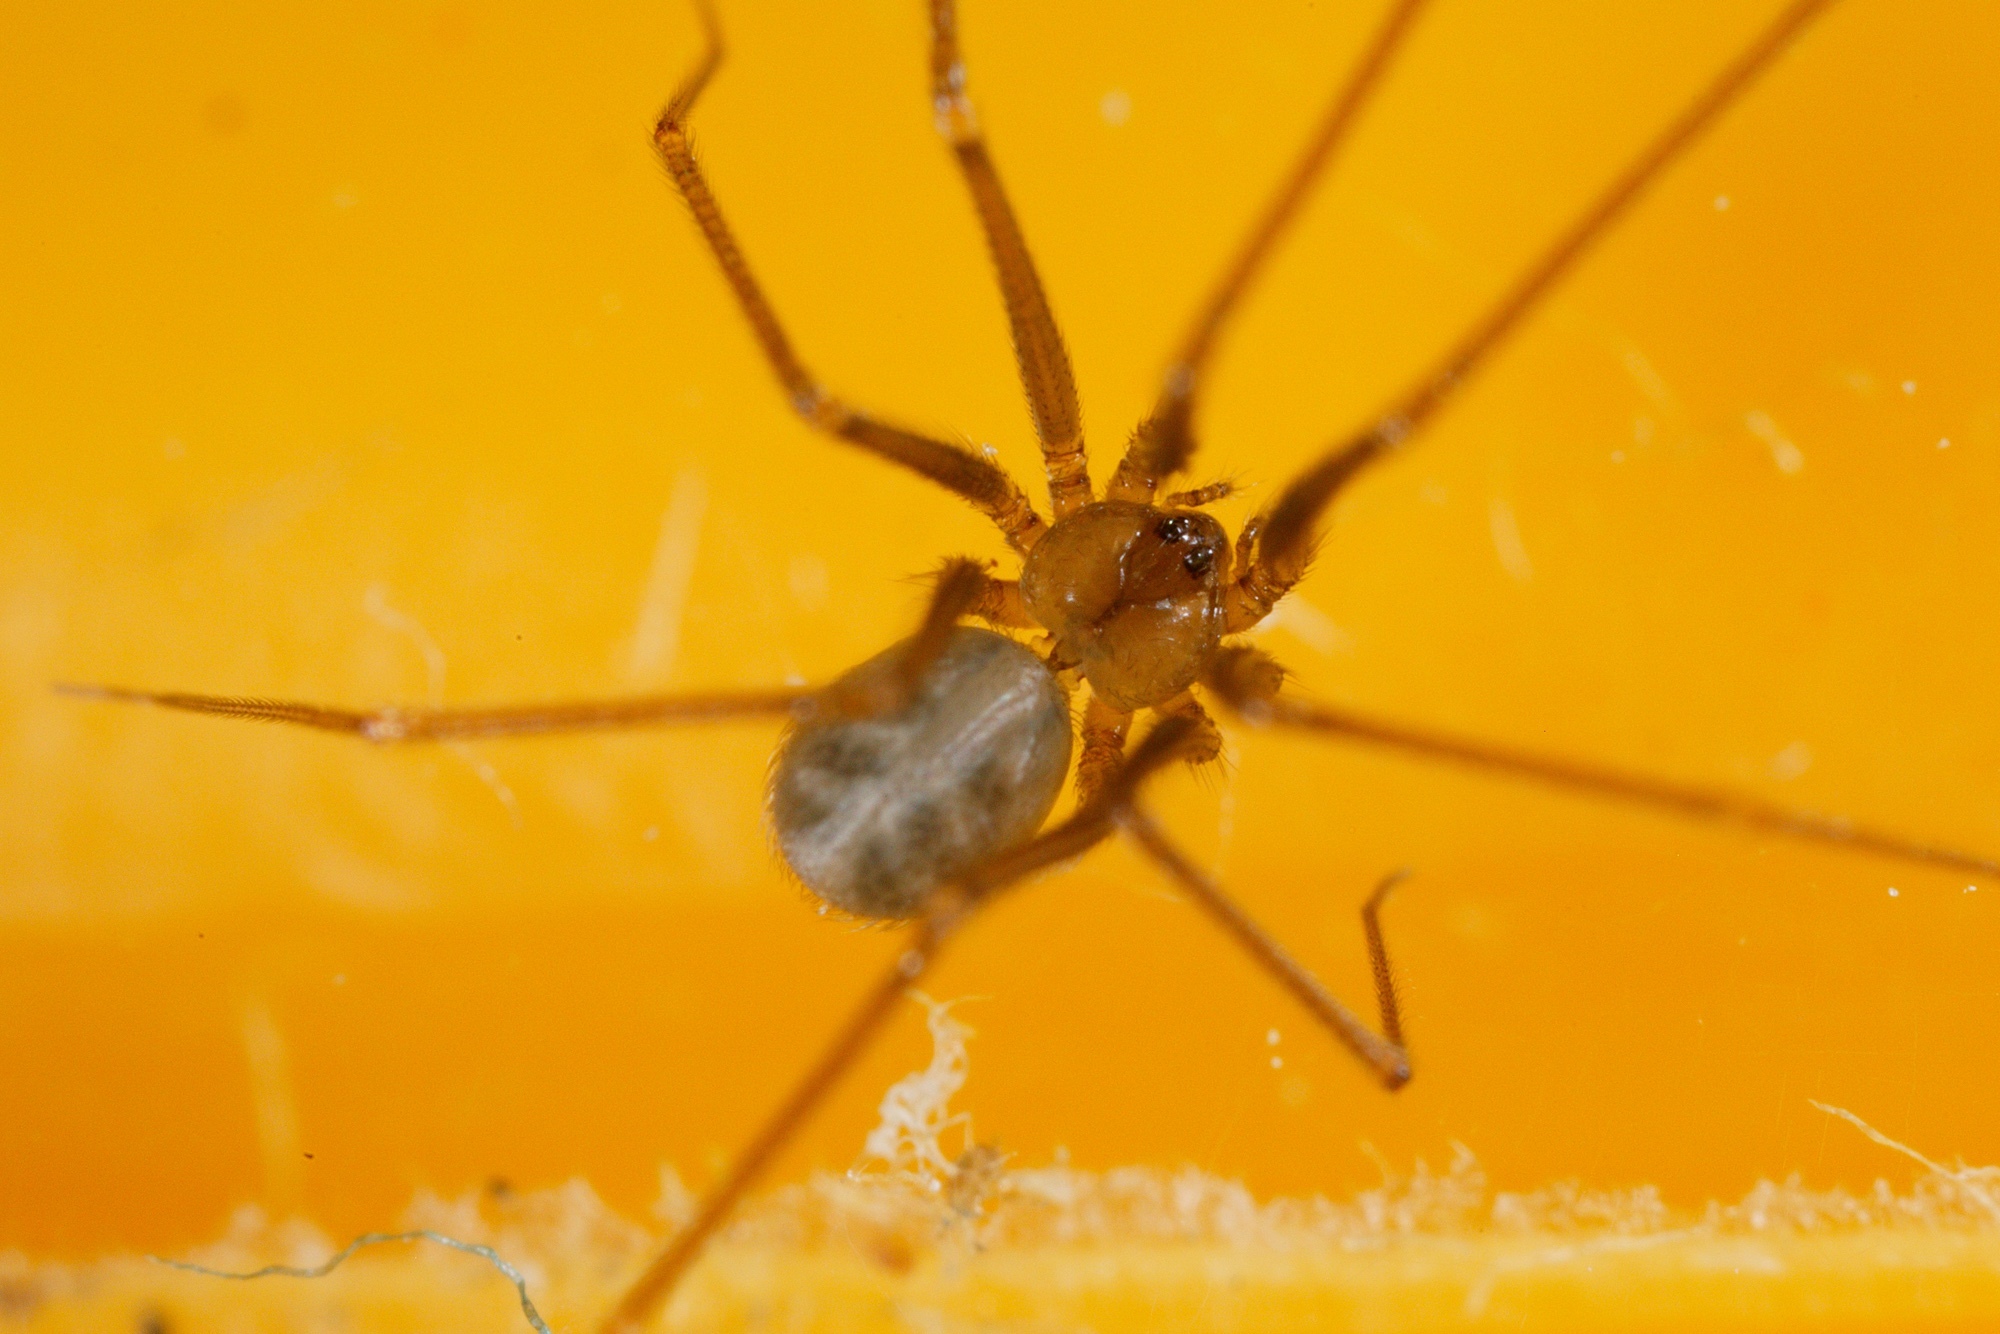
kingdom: Animalia
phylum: Arthropoda
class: Arachnida
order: Araneae
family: Pholcidae
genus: Psilochorus
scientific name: Psilochorus simoni
